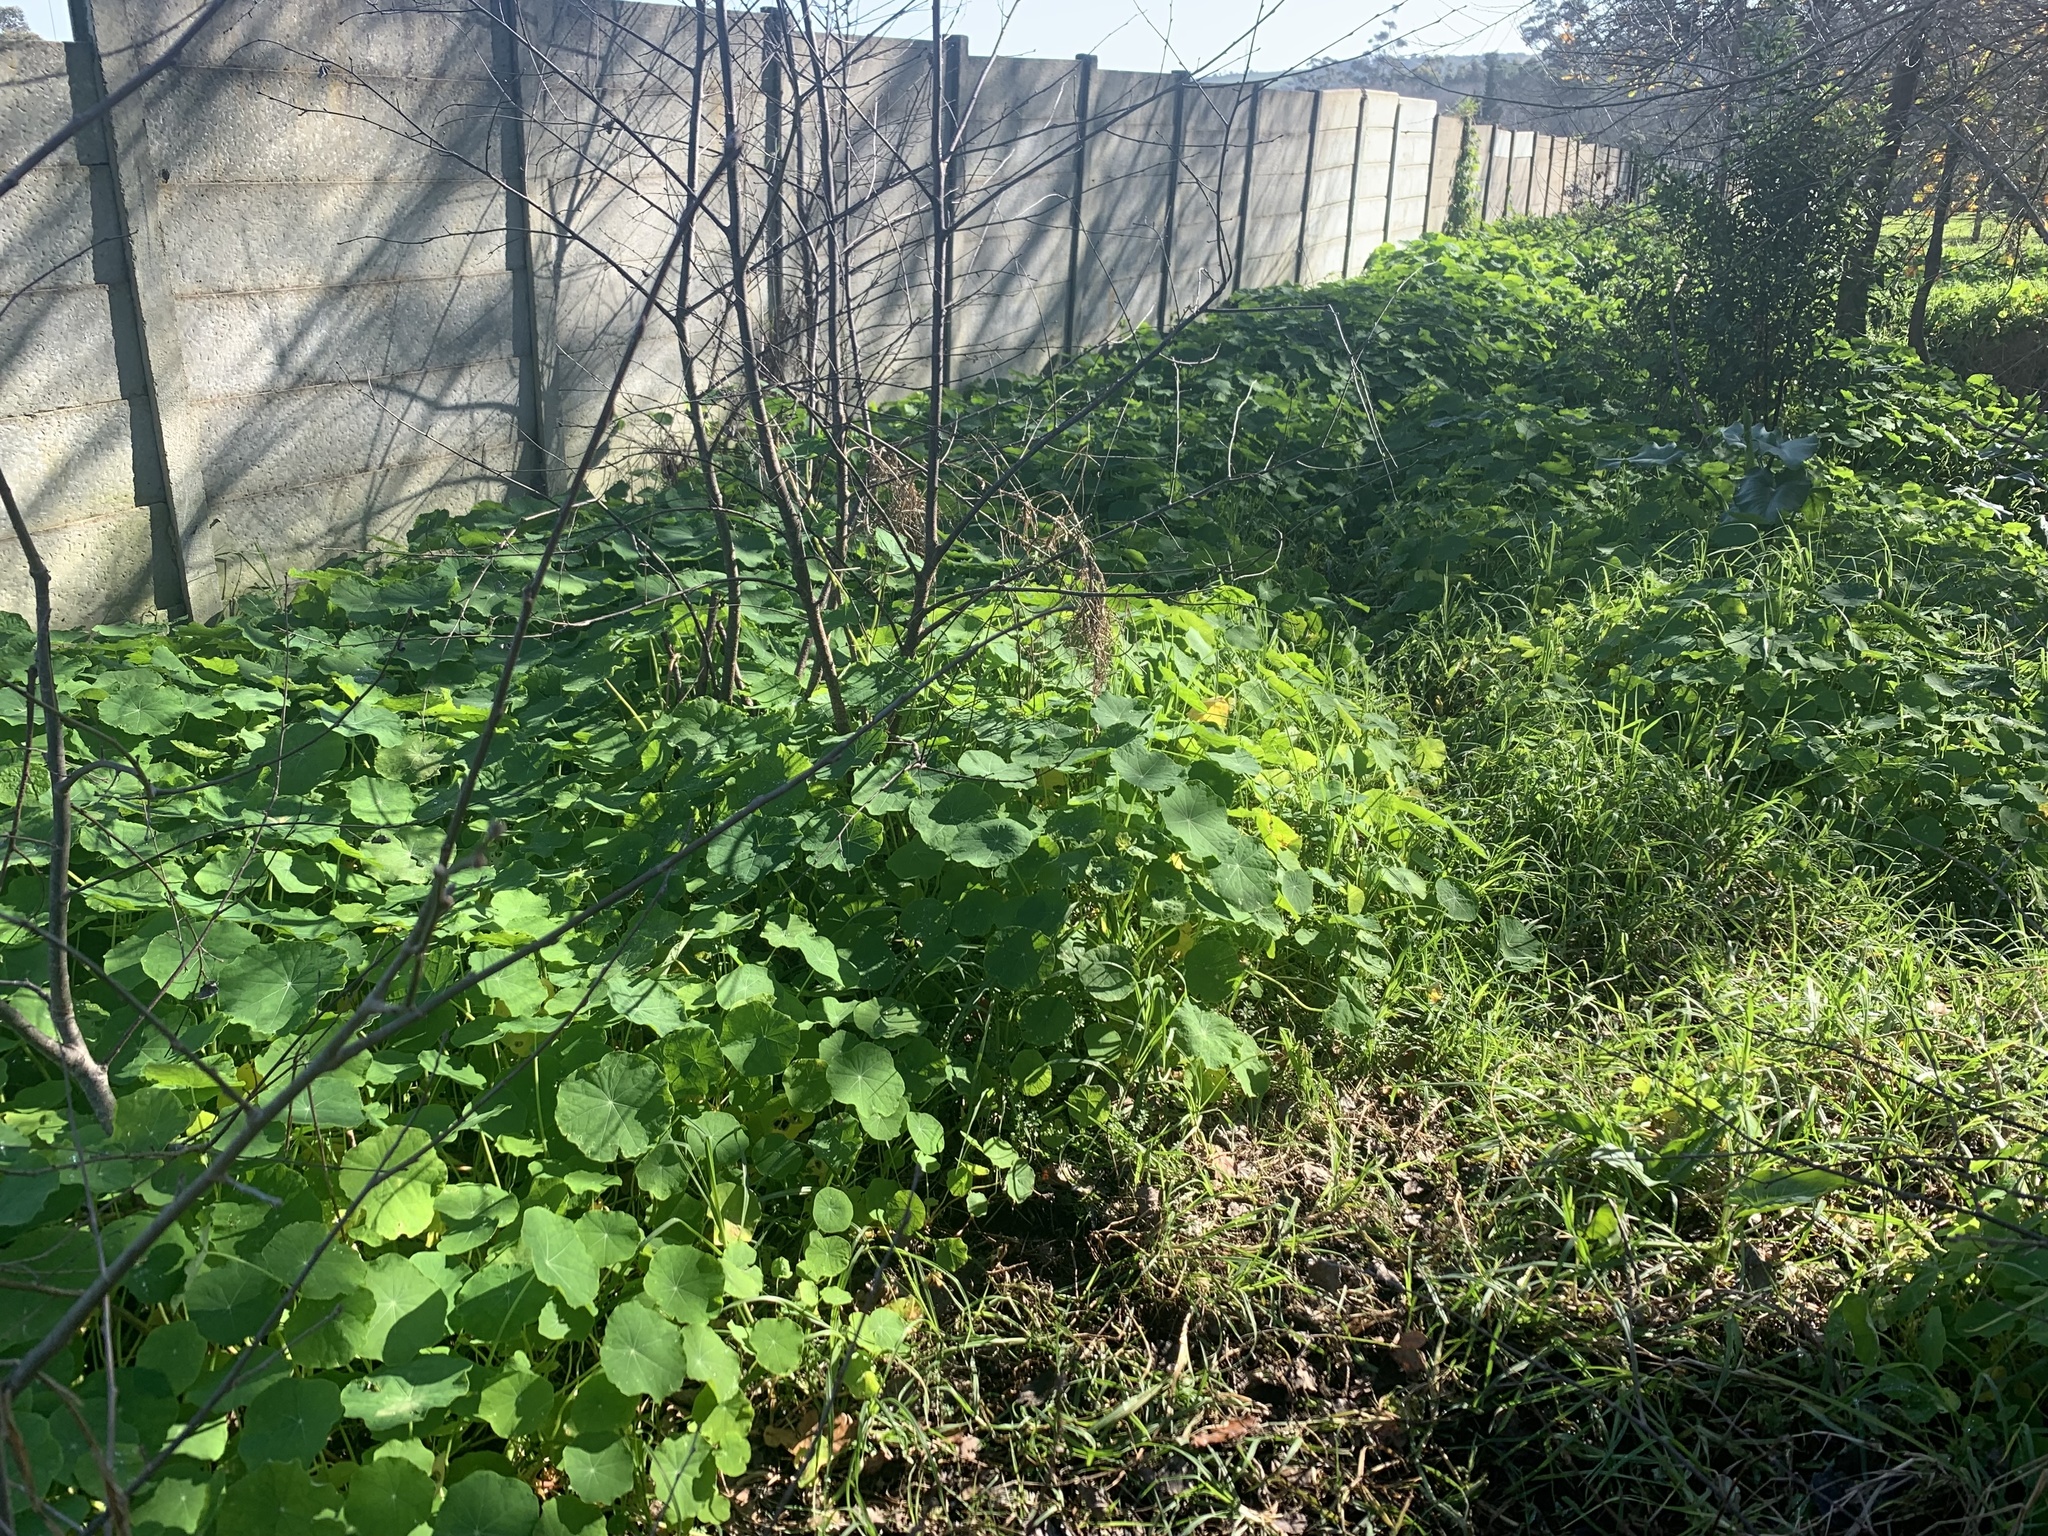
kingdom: Plantae
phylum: Tracheophyta
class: Magnoliopsida
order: Brassicales
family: Tropaeolaceae
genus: Tropaeolum
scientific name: Tropaeolum majus
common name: Nasturtium
